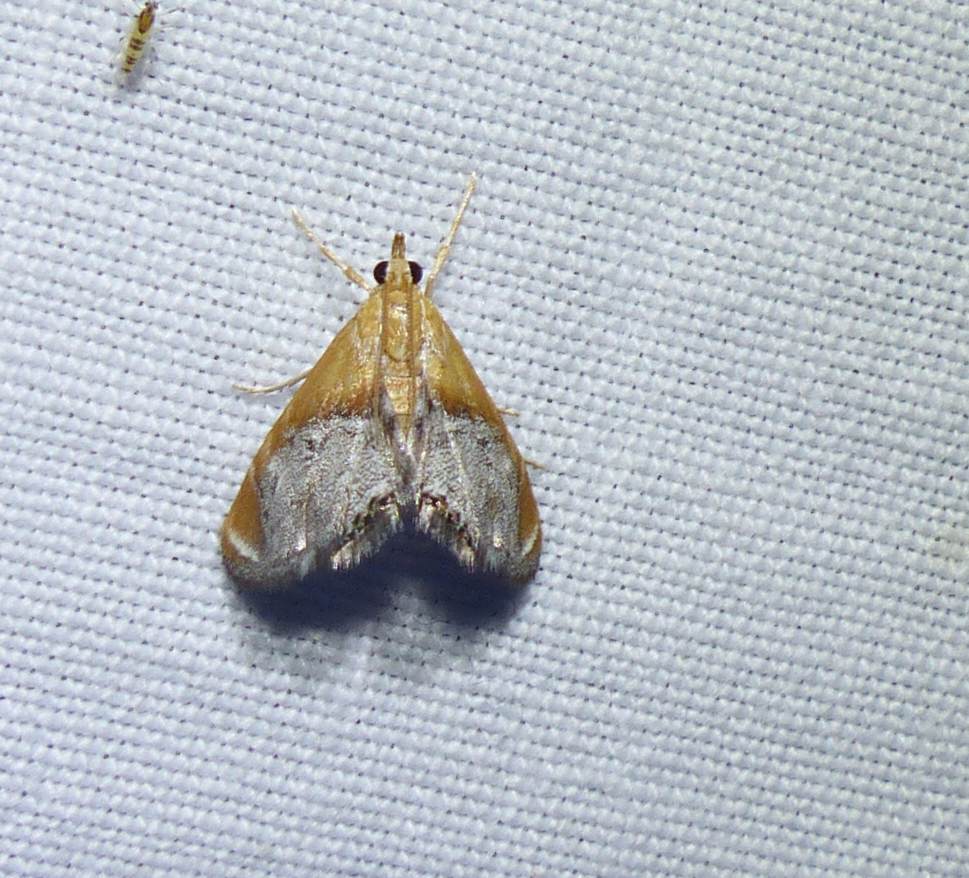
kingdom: Animalia
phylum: Arthropoda
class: Insecta
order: Lepidoptera
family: Crambidae
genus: Chalcoela
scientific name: Chalcoela iphitalis
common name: Sooty-winged chalcoela moth
